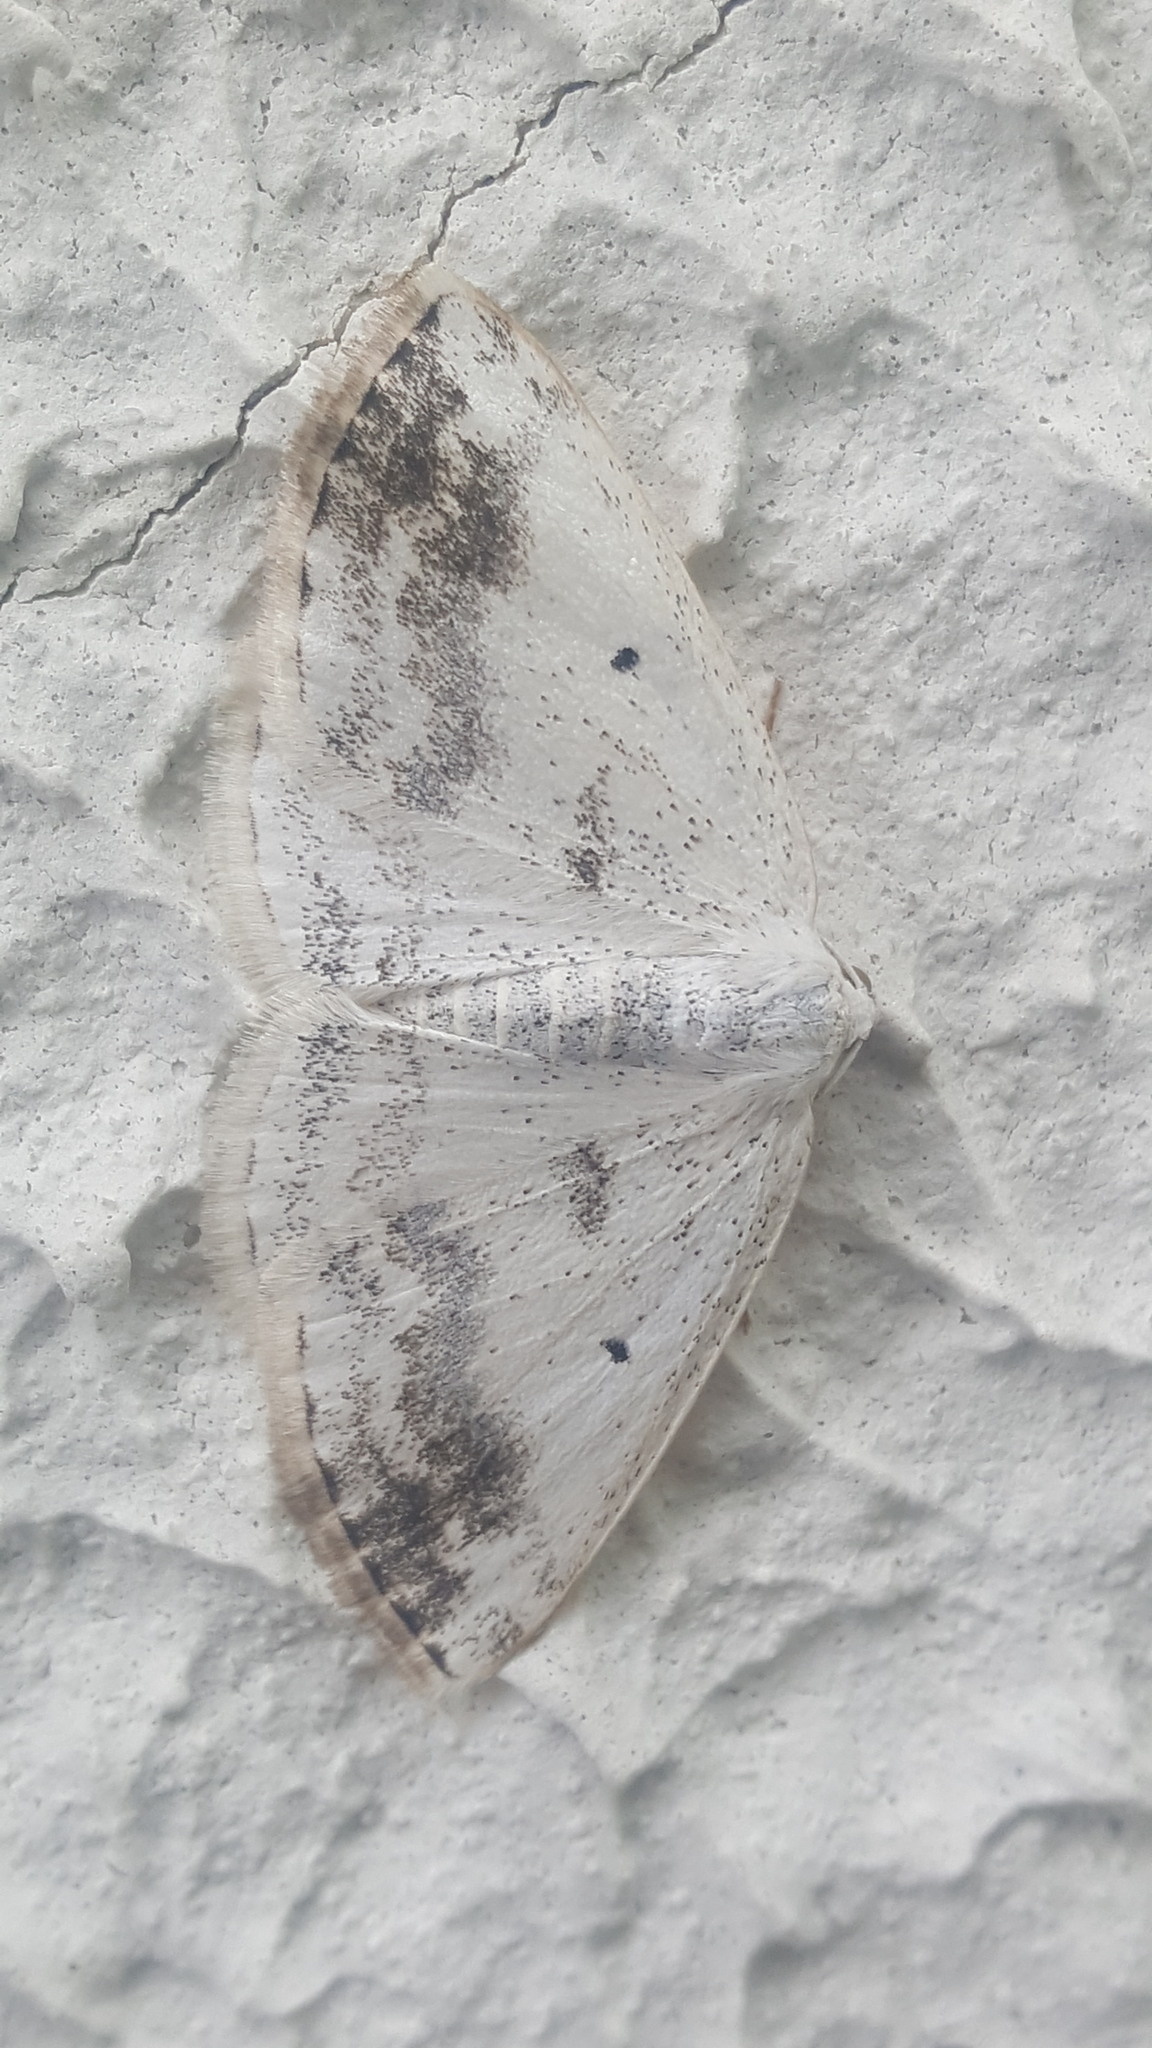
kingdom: Animalia
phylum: Arthropoda
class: Insecta
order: Lepidoptera
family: Geometridae
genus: Lomographa
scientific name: Lomographa temerata
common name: Clouded silver
